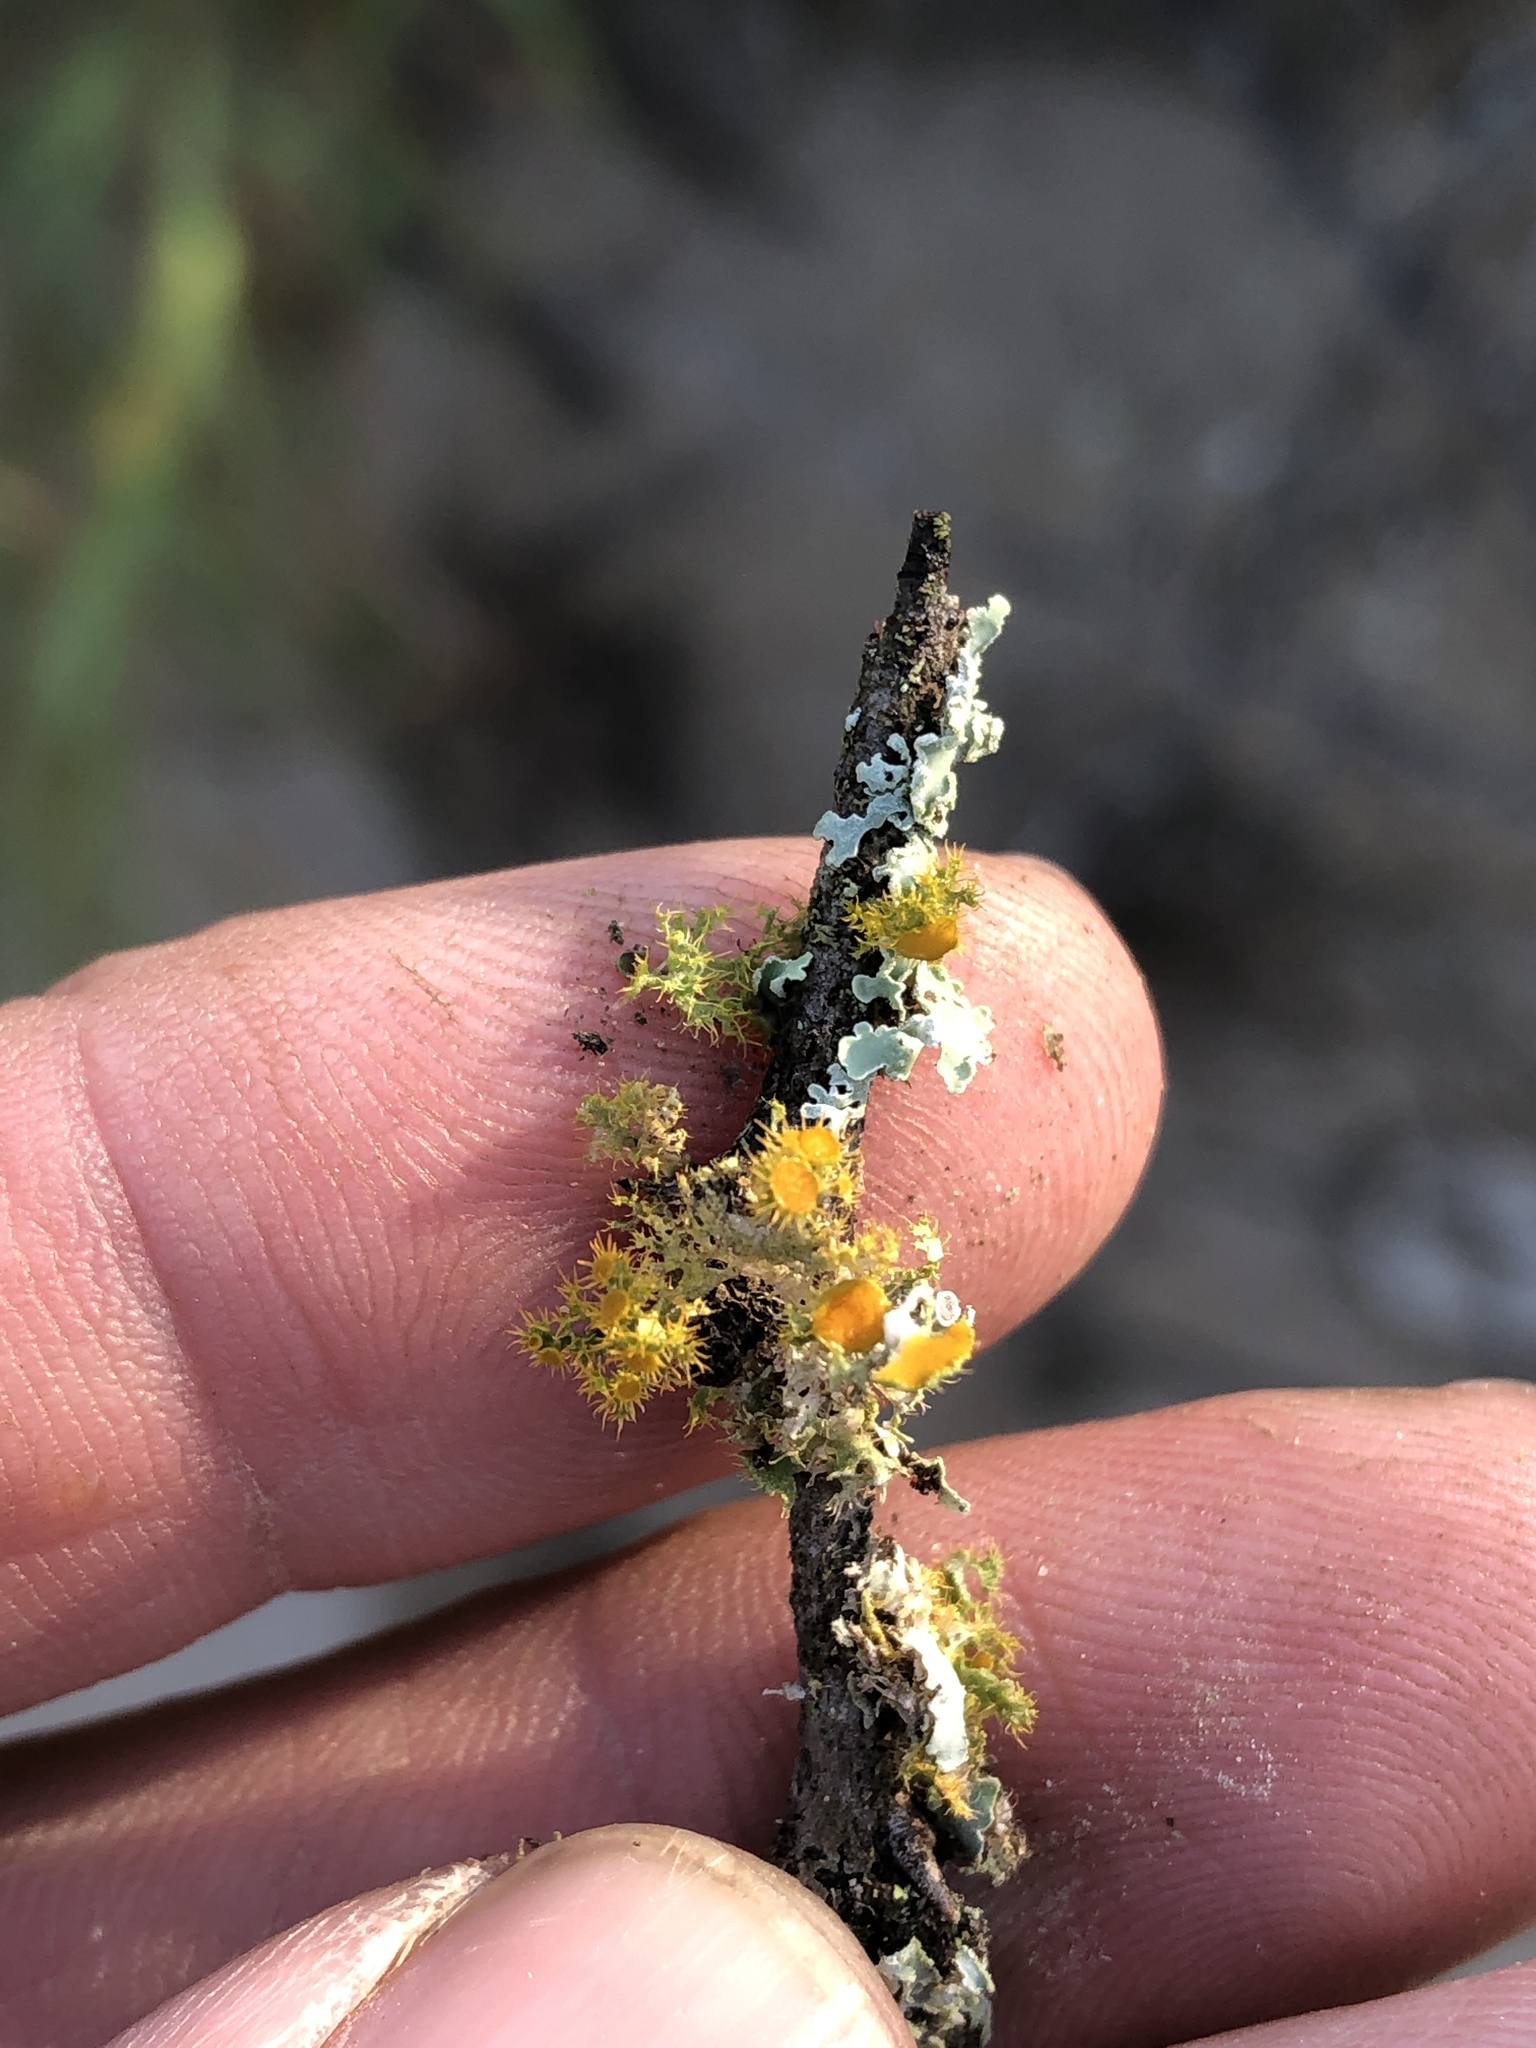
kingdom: Fungi
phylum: Ascomycota
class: Lecanoromycetes
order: Teloschistales
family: Teloschistaceae
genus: Niorma
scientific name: Niorma chrysophthalma
